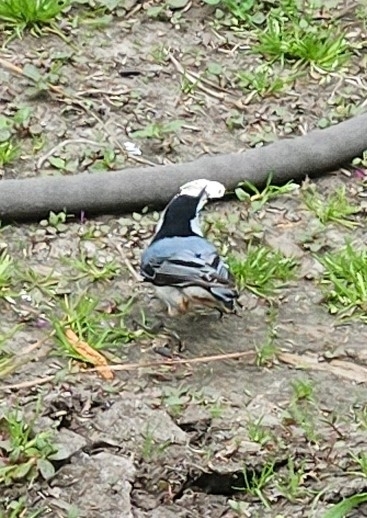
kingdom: Animalia
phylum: Chordata
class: Aves
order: Passeriformes
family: Sittidae
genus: Sitta
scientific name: Sitta carolinensis
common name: White-breasted nuthatch
